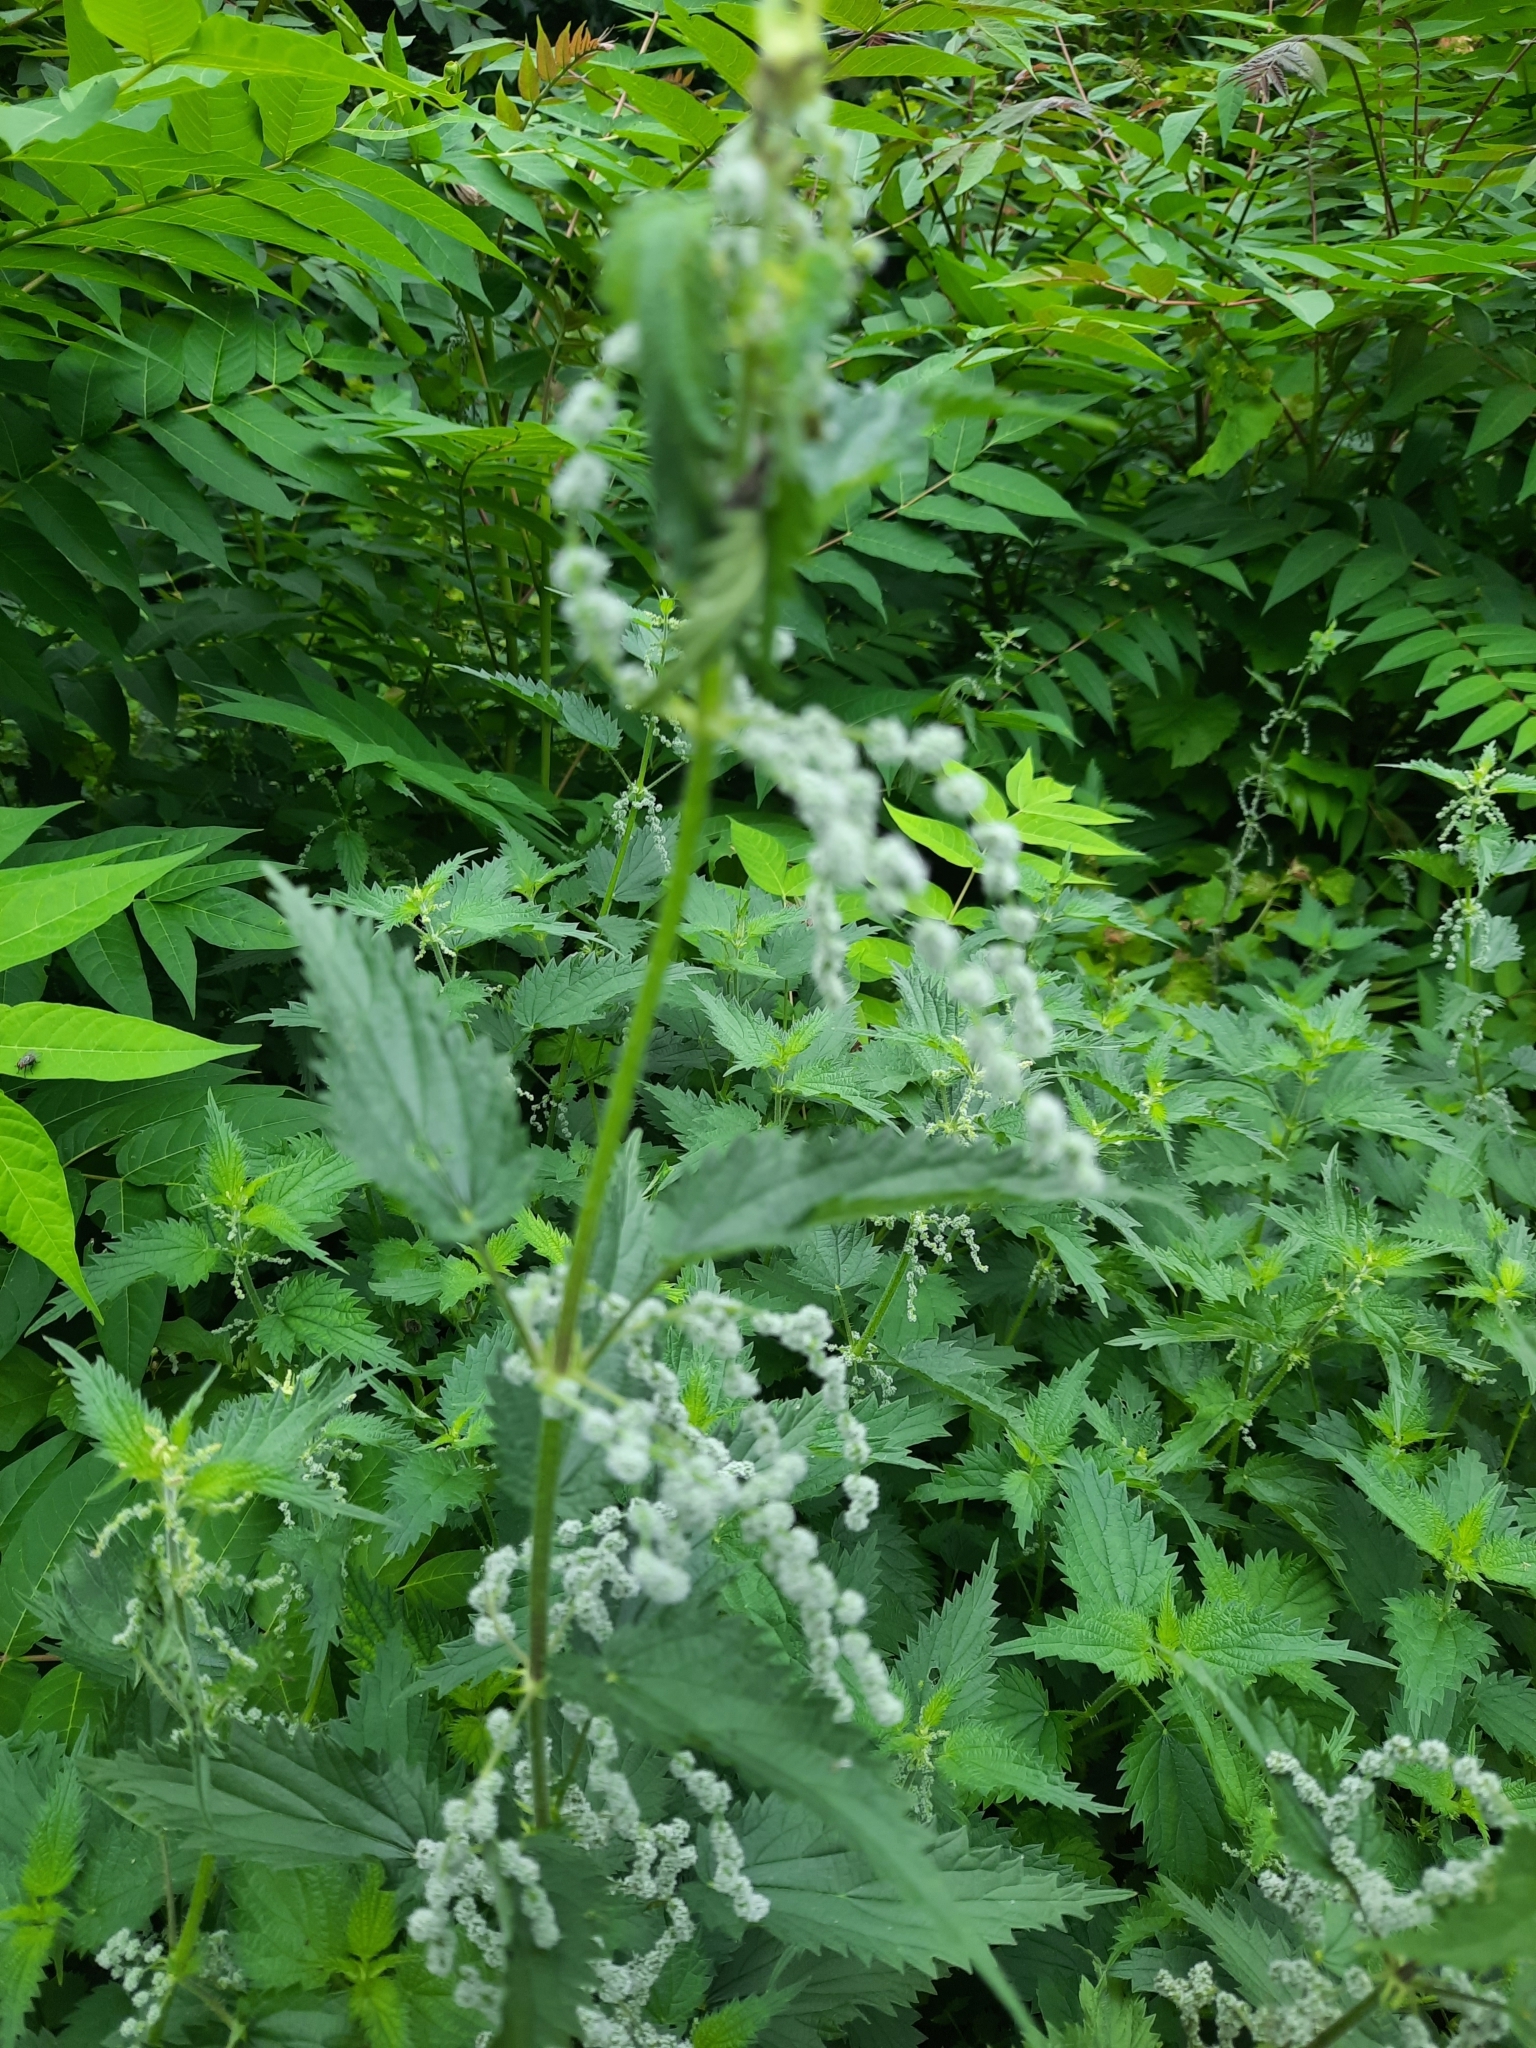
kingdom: Plantae
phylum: Tracheophyta
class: Magnoliopsida
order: Rosales
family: Urticaceae
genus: Urtica
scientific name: Urtica dioica
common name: Common nettle
